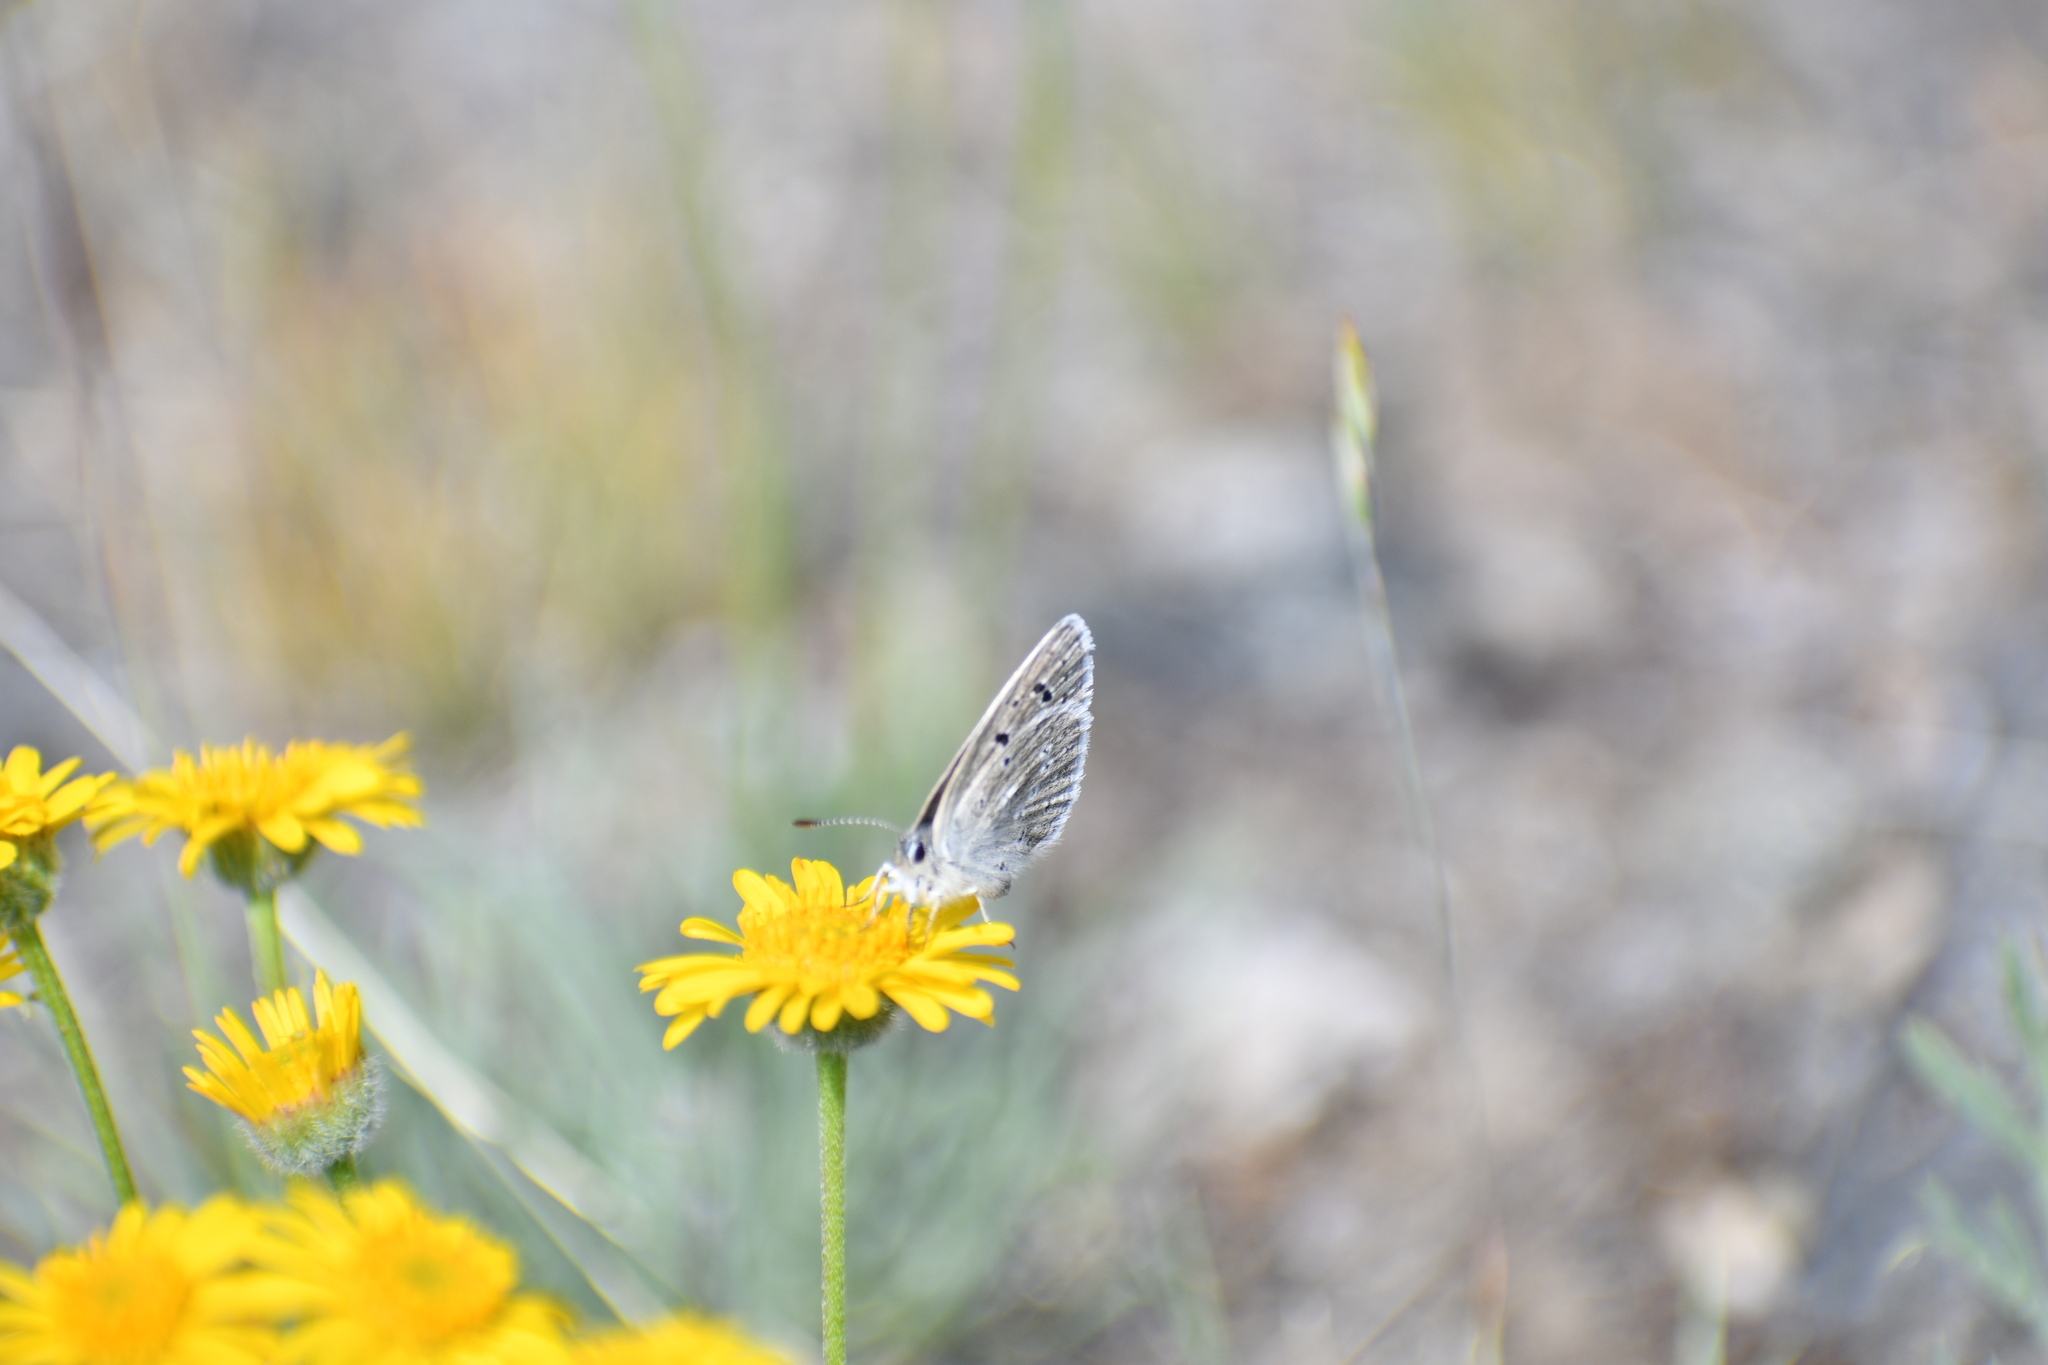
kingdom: Animalia
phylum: Arthropoda
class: Insecta
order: Lepidoptera
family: Lycaenidae
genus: Icaricia
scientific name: Icaricia icarioides
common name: Boisduval's blue
